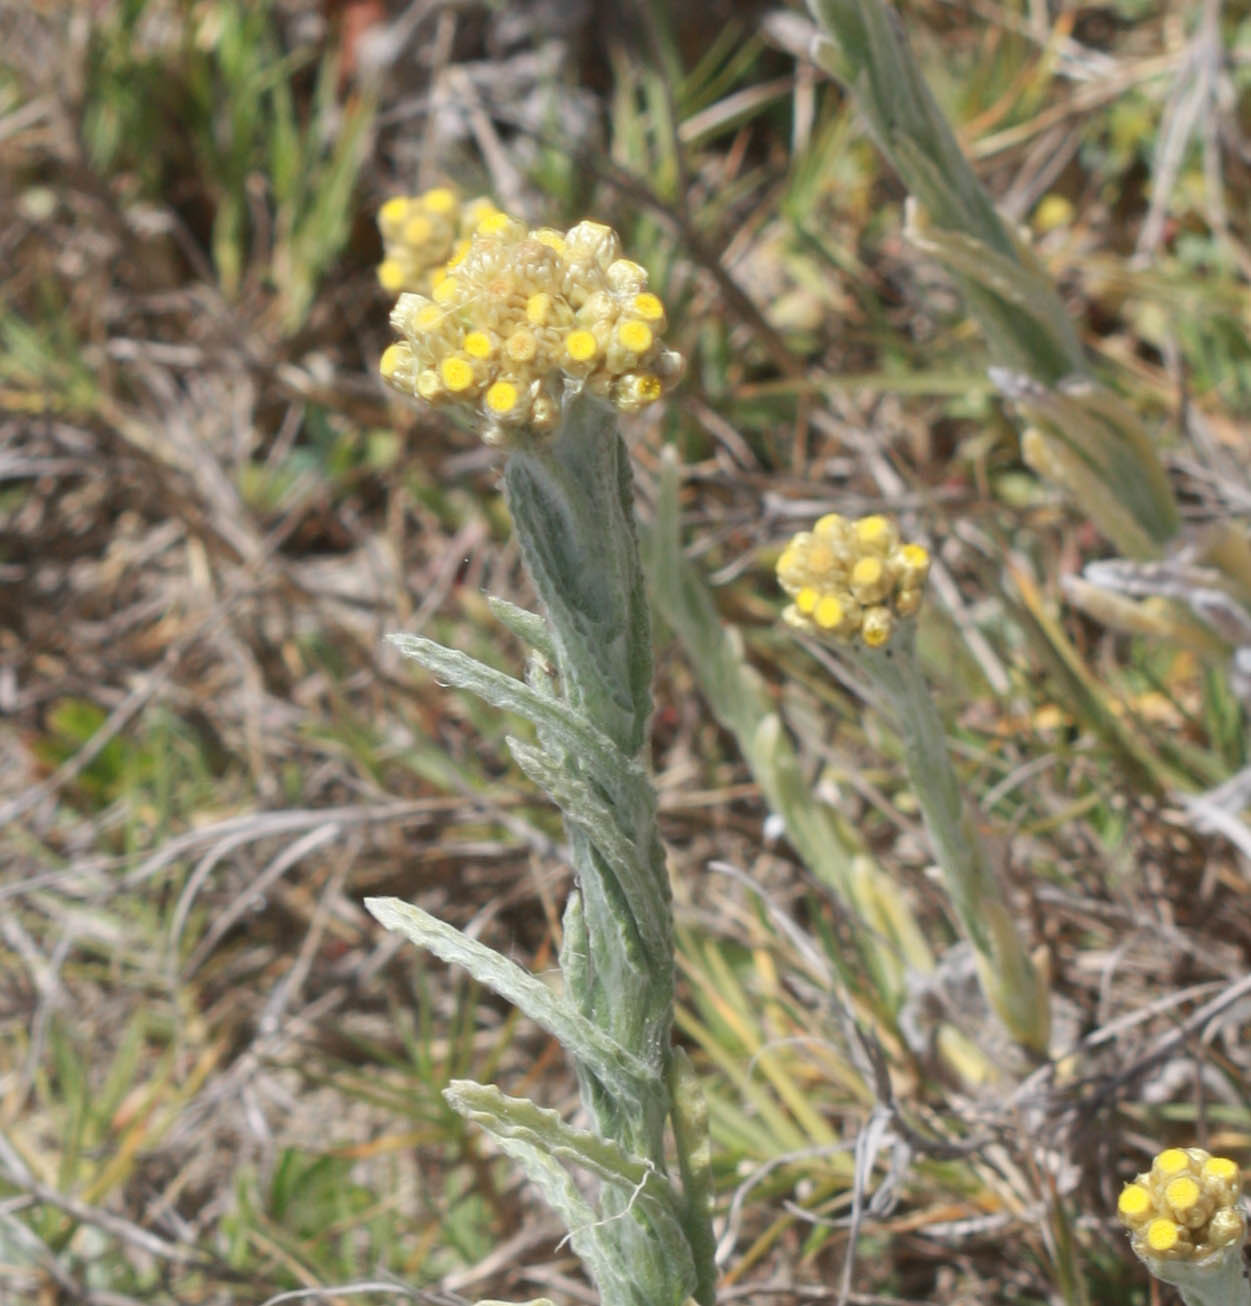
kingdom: Plantae
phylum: Tracheophyta
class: Magnoliopsida
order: Asterales
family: Asteraceae
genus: Pseudognaphalium
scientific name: Pseudognaphalium stramineum
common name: Cotton-batting-plant
